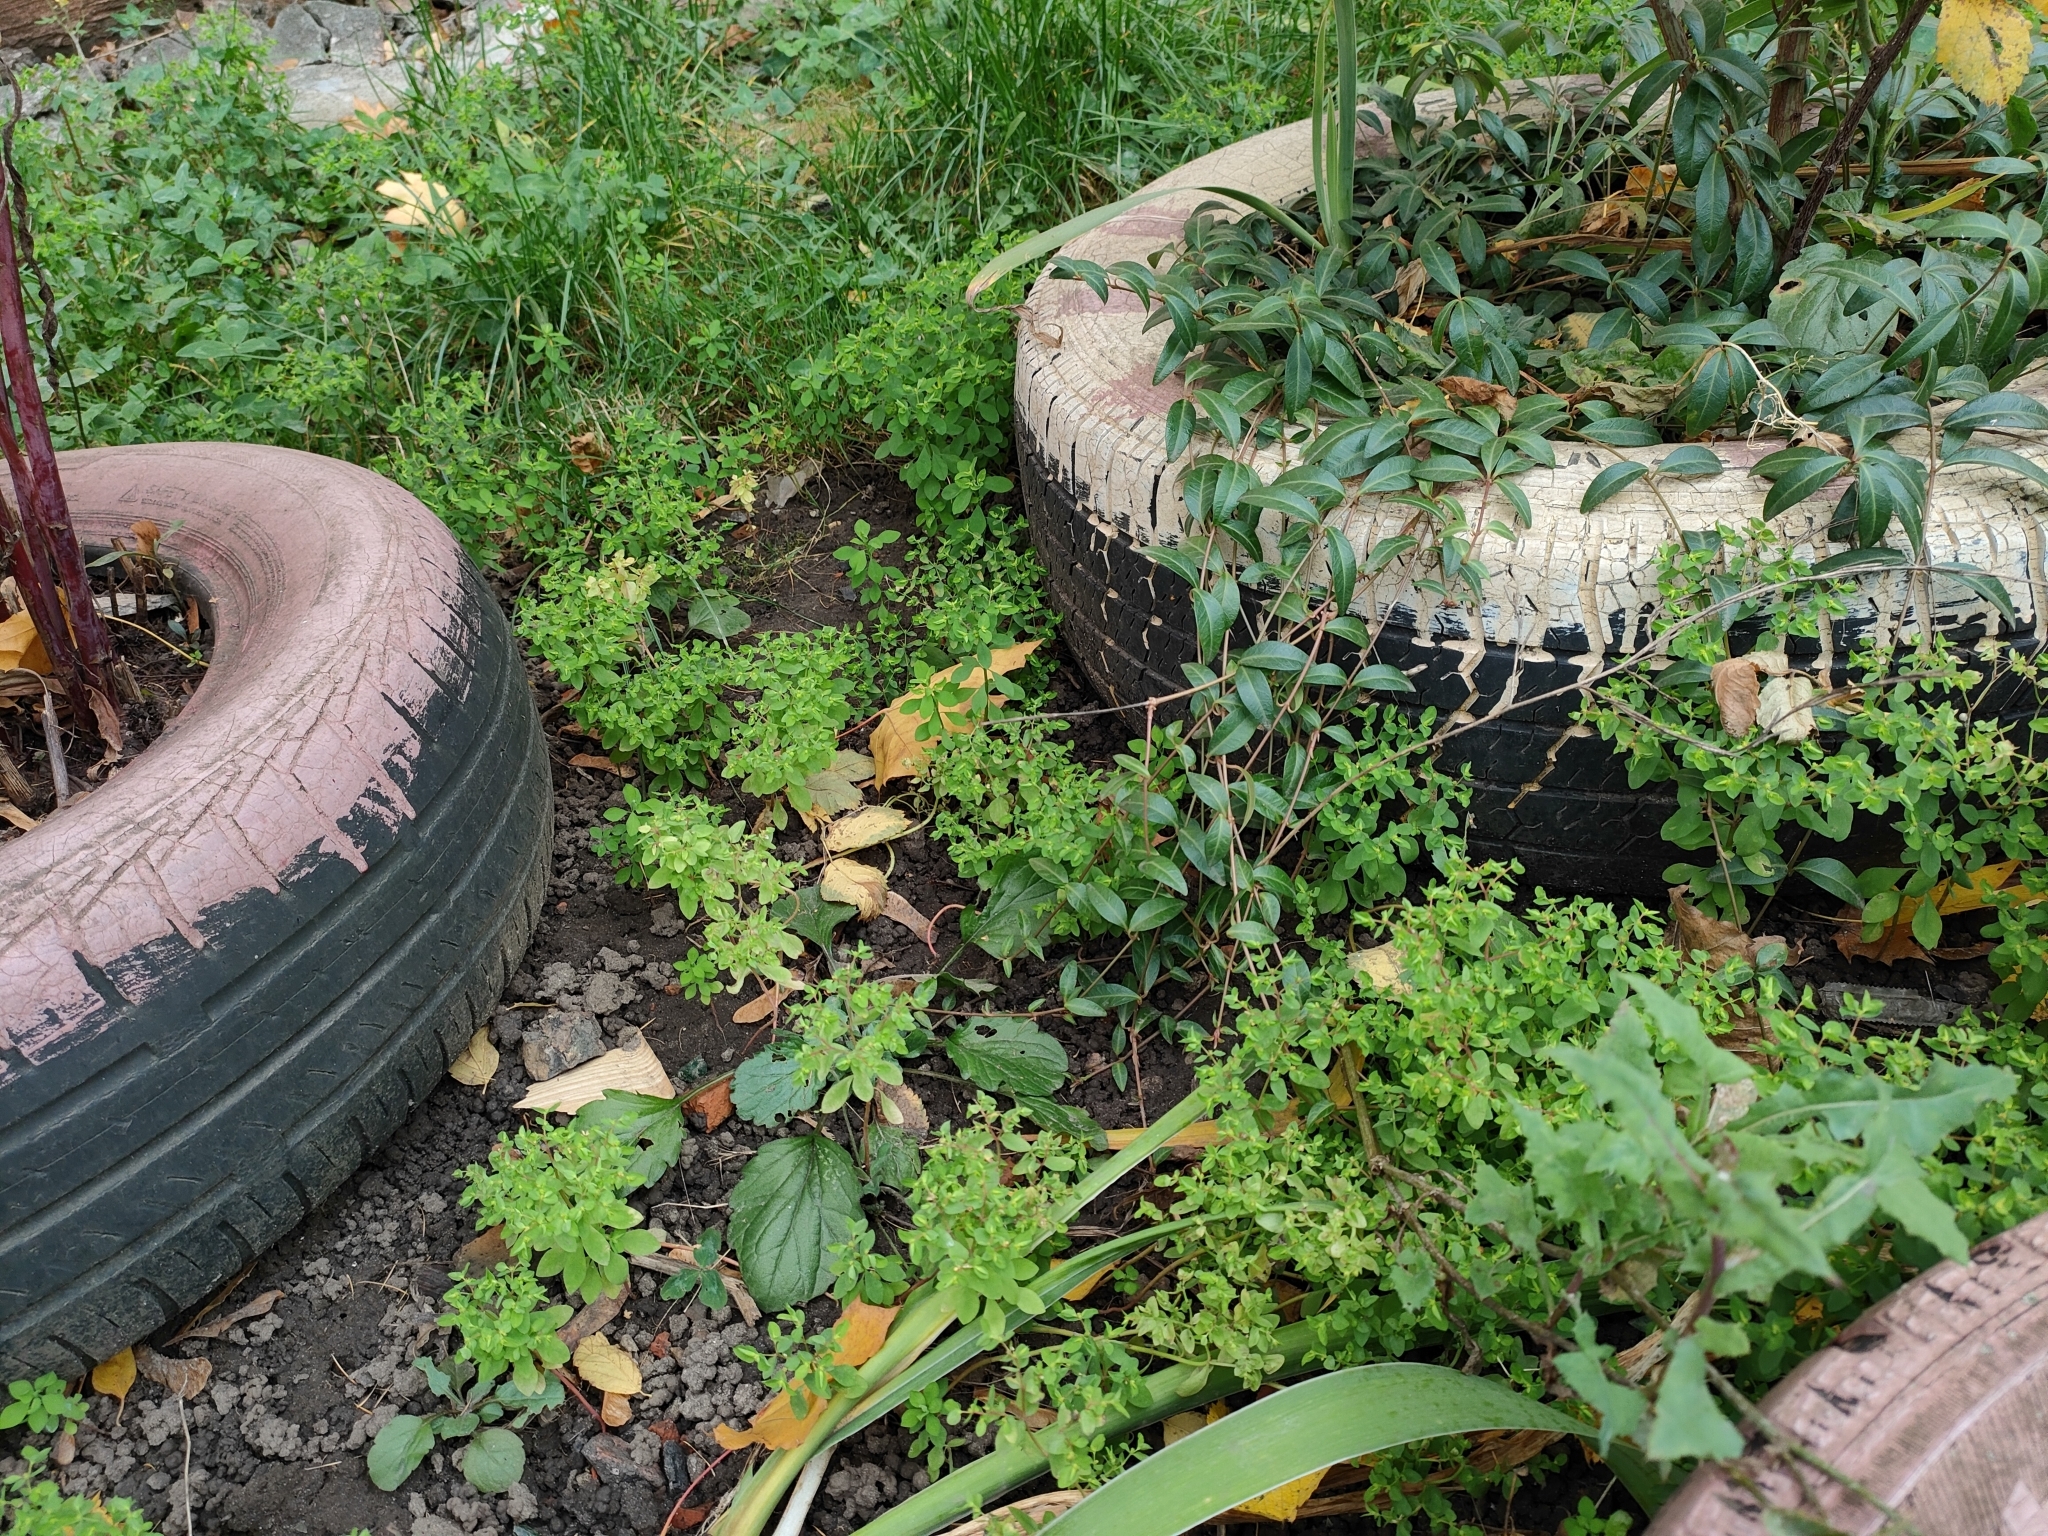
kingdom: Plantae
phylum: Tracheophyta
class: Magnoliopsida
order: Malpighiales
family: Euphorbiaceae
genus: Euphorbia
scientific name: Euphorbia peplus
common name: Petty spurge
